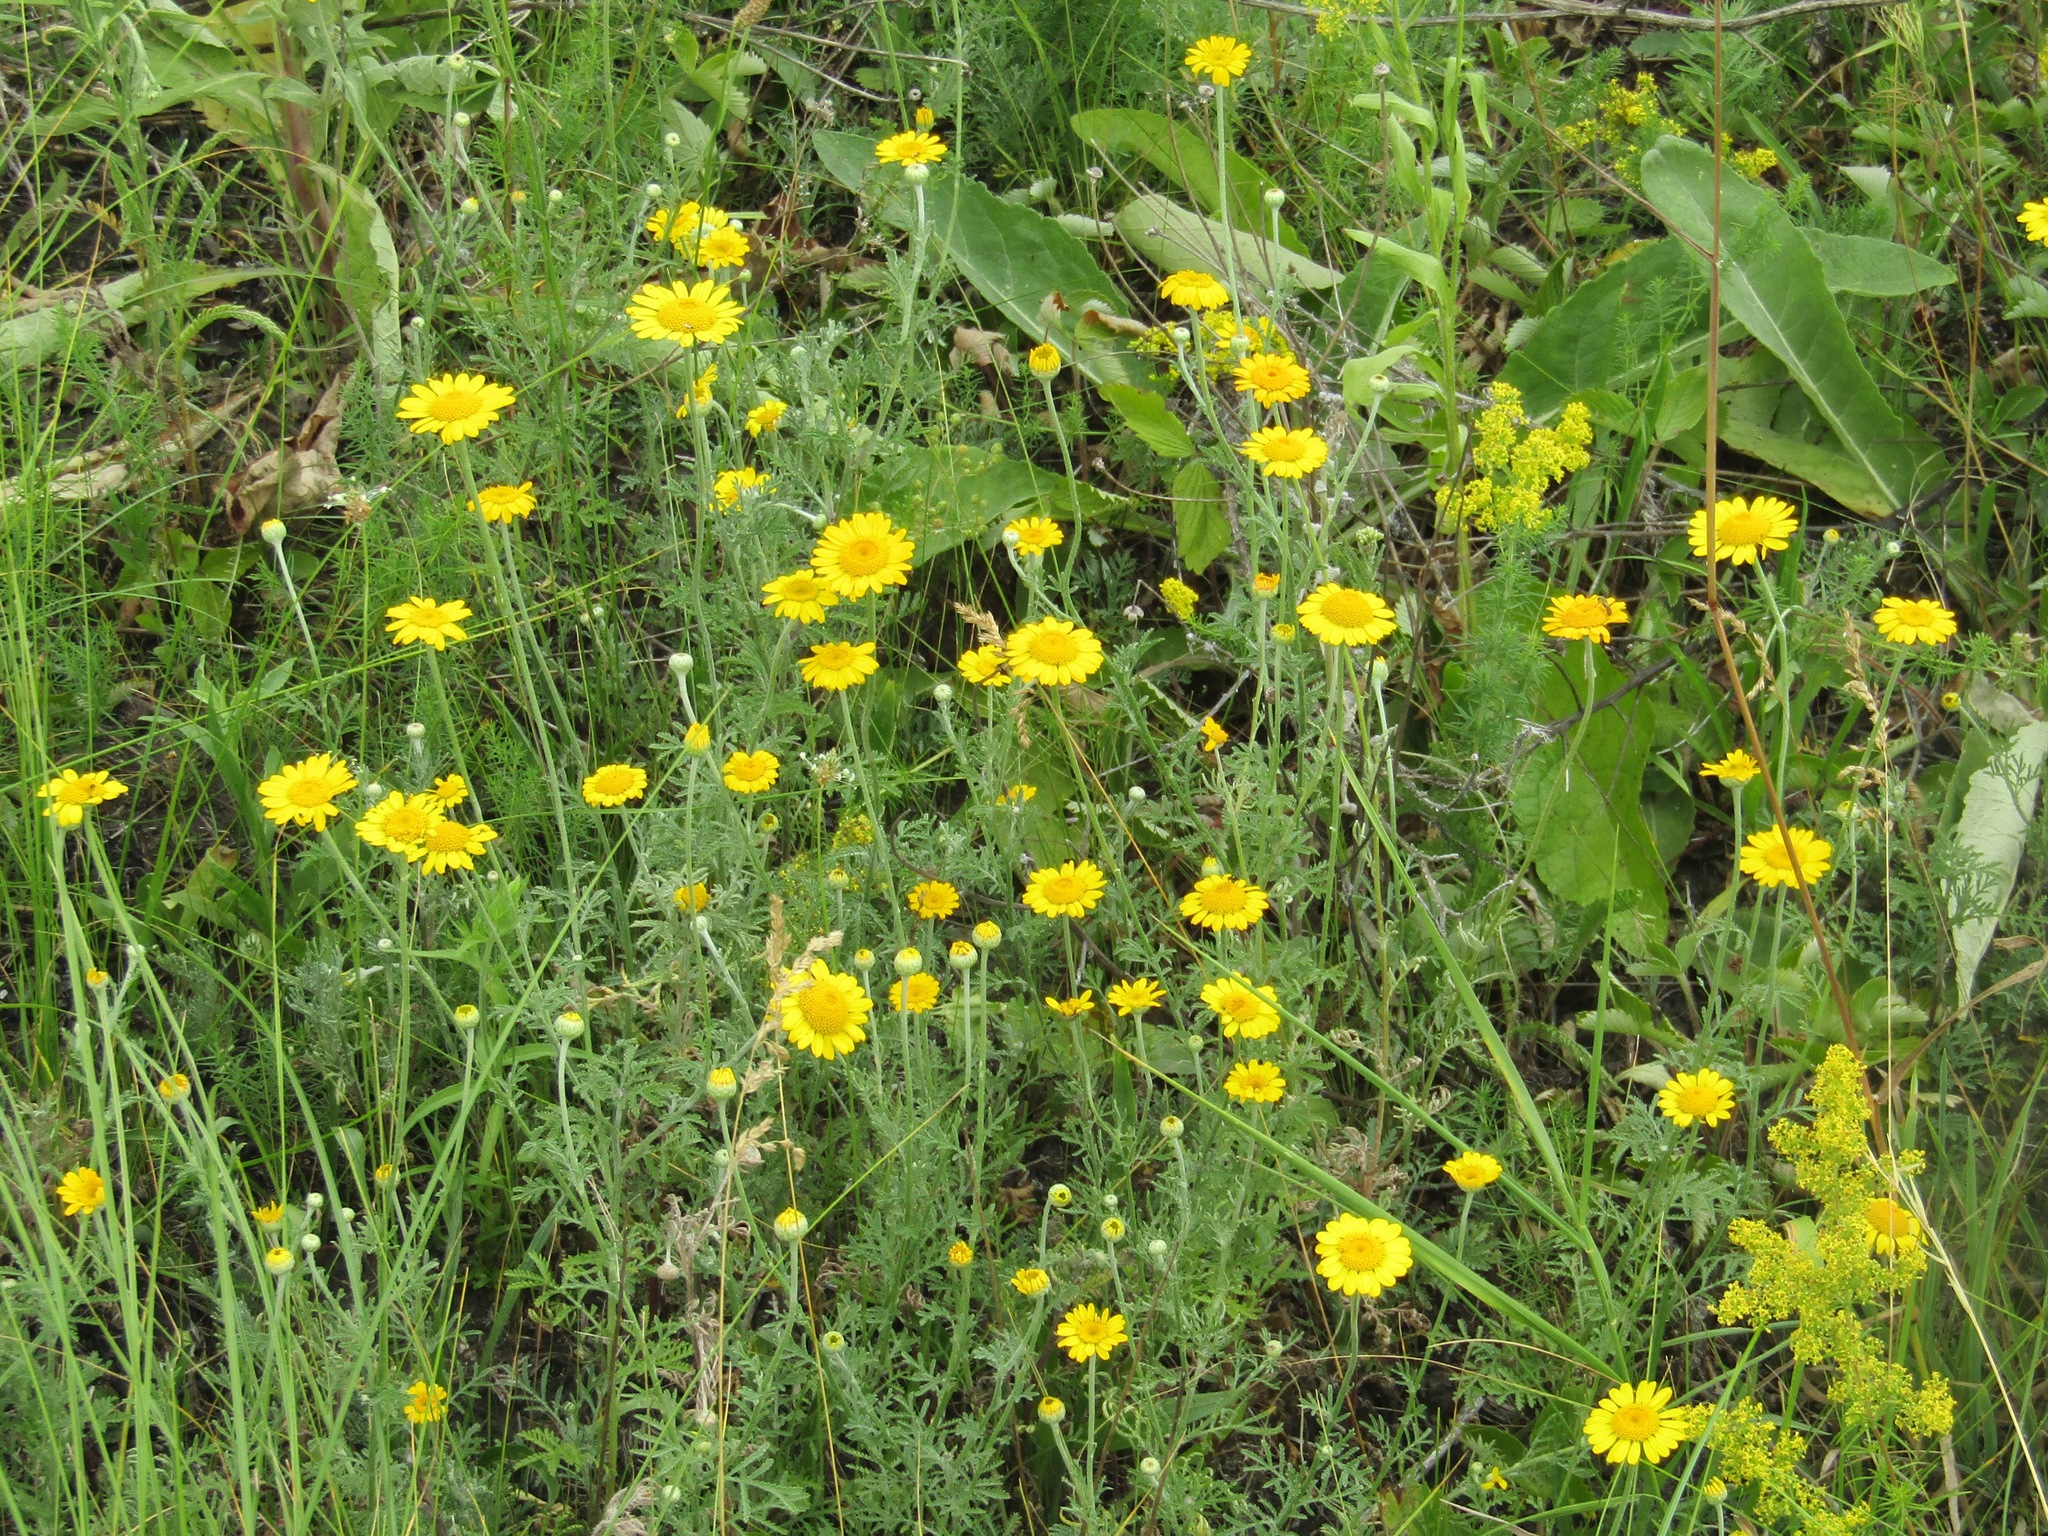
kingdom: Plantae
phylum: Tracheophyta
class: Magnoliopsida
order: Asterales
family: Asteraceae
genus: Cota
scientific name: Cota tinctoria
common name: Golden chamomile
